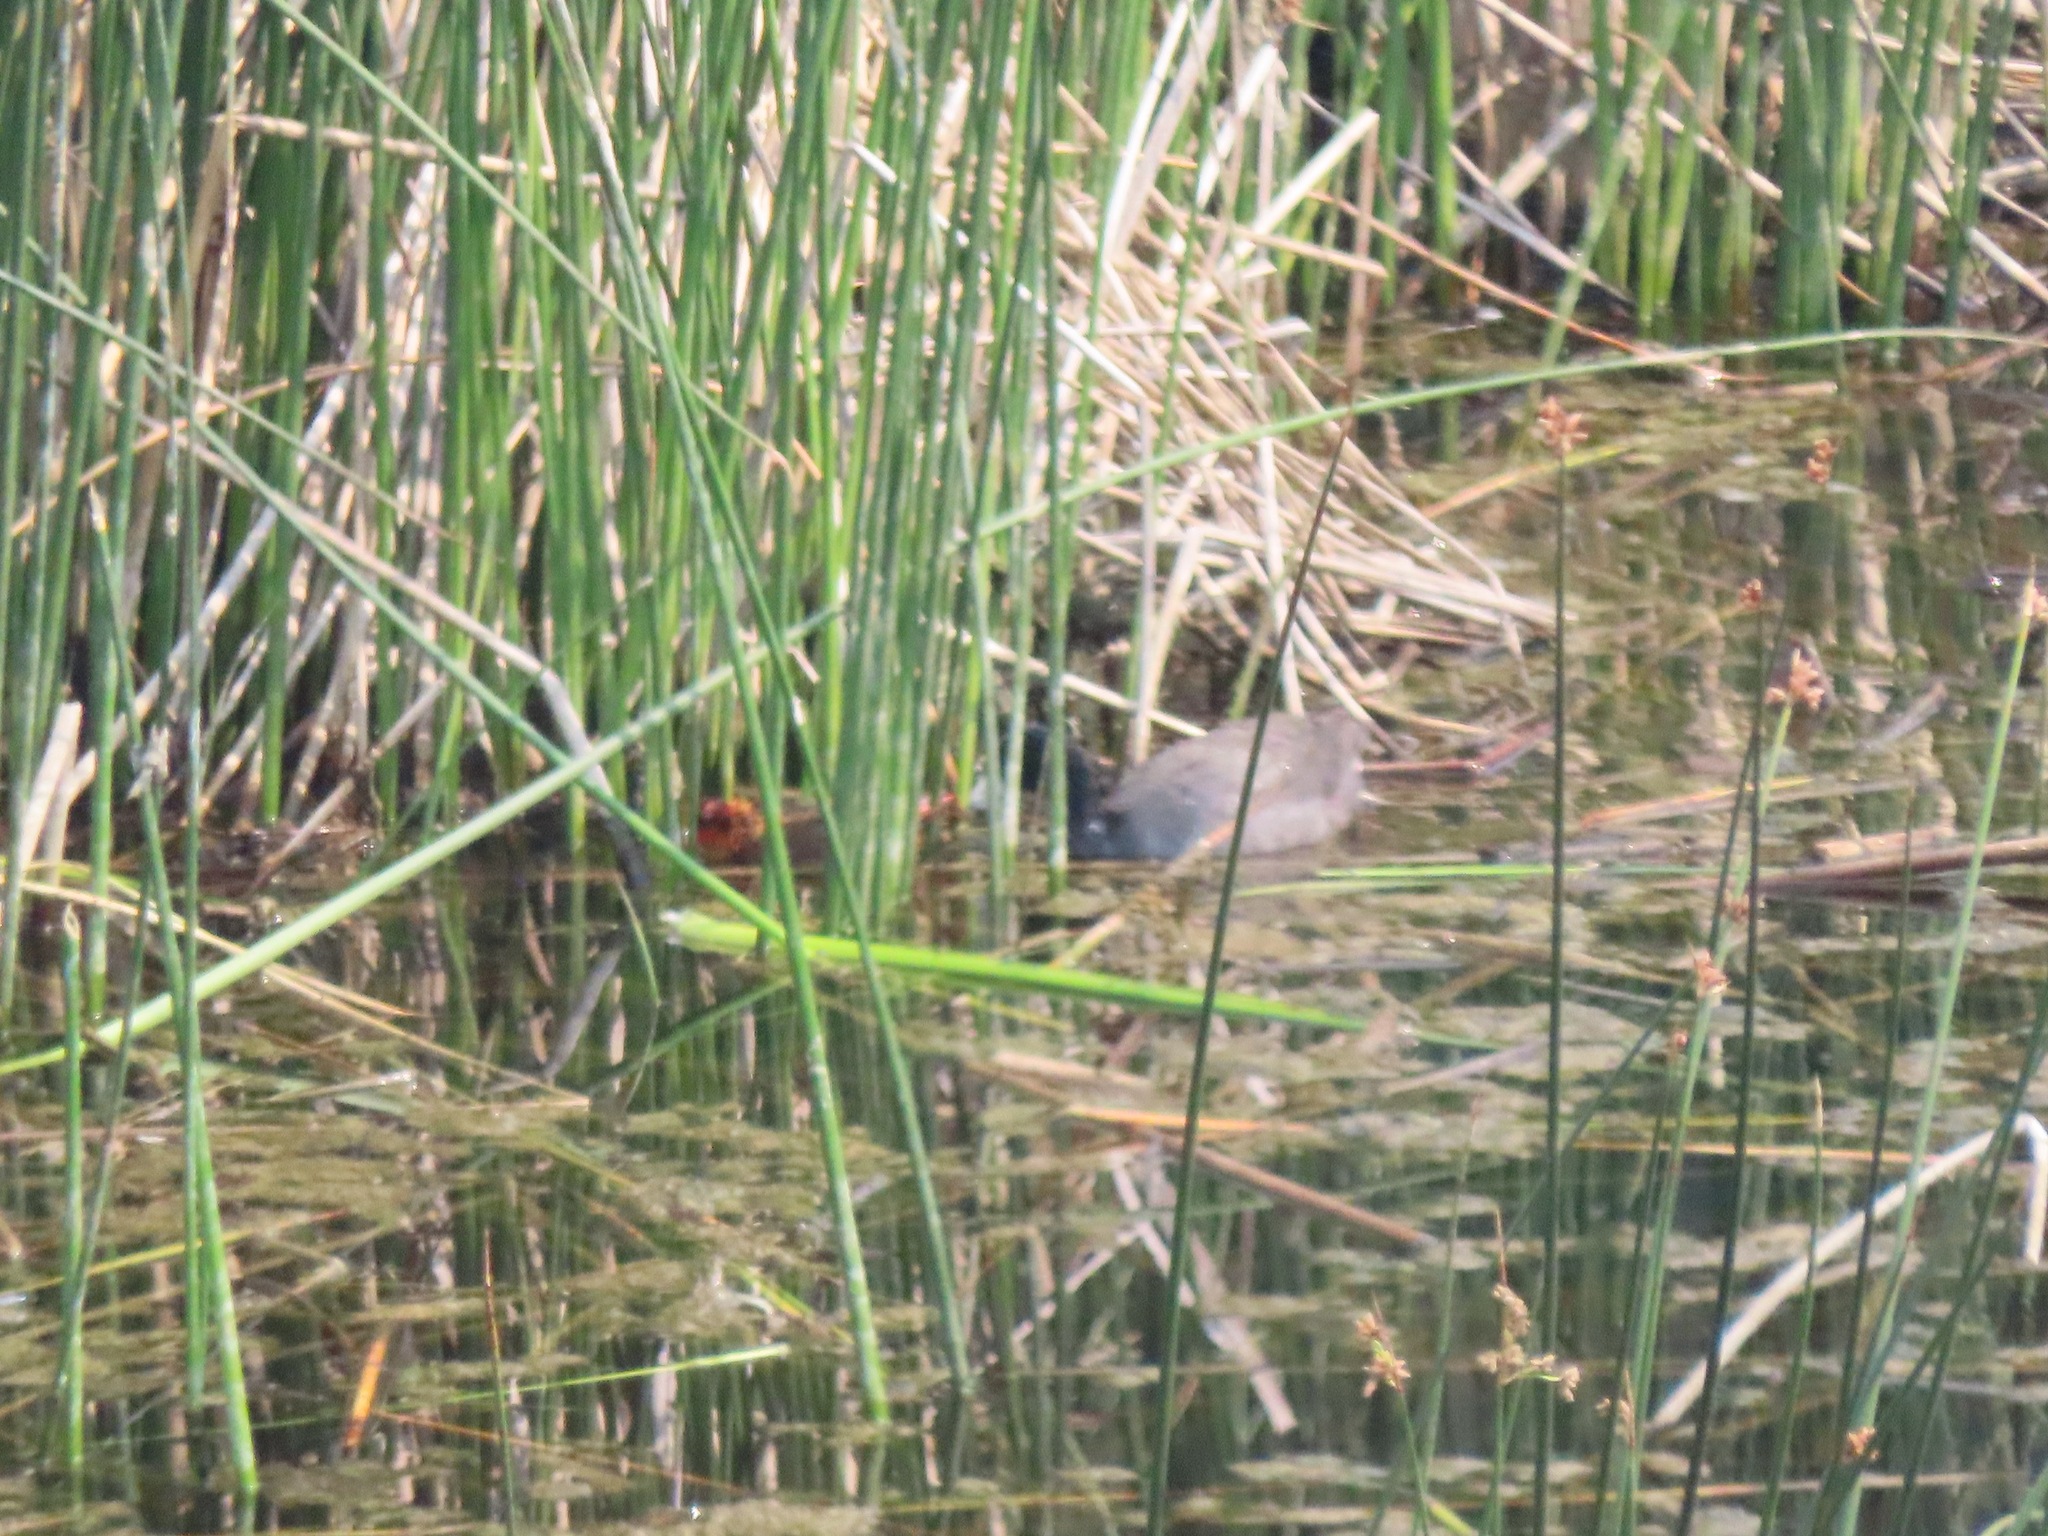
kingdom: Animalia
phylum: Chordata
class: Aves
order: Gruiformes
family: Rallidae
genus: Fulica
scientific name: Fulica americana
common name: American coot
